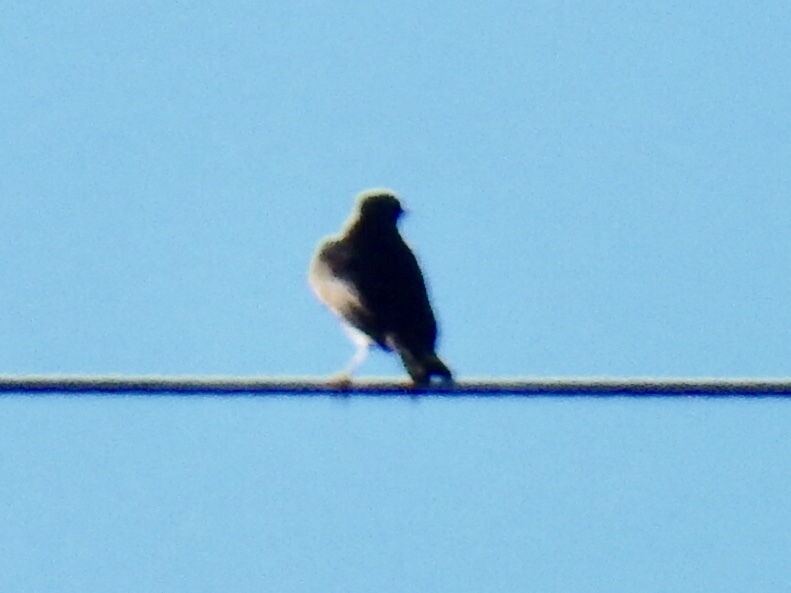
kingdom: Animalia
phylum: Chordata
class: Aves
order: Passeriformes
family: Icteridae
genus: Quiscalus
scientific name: Quiscalus mexicanus
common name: Great-tailed grackle
